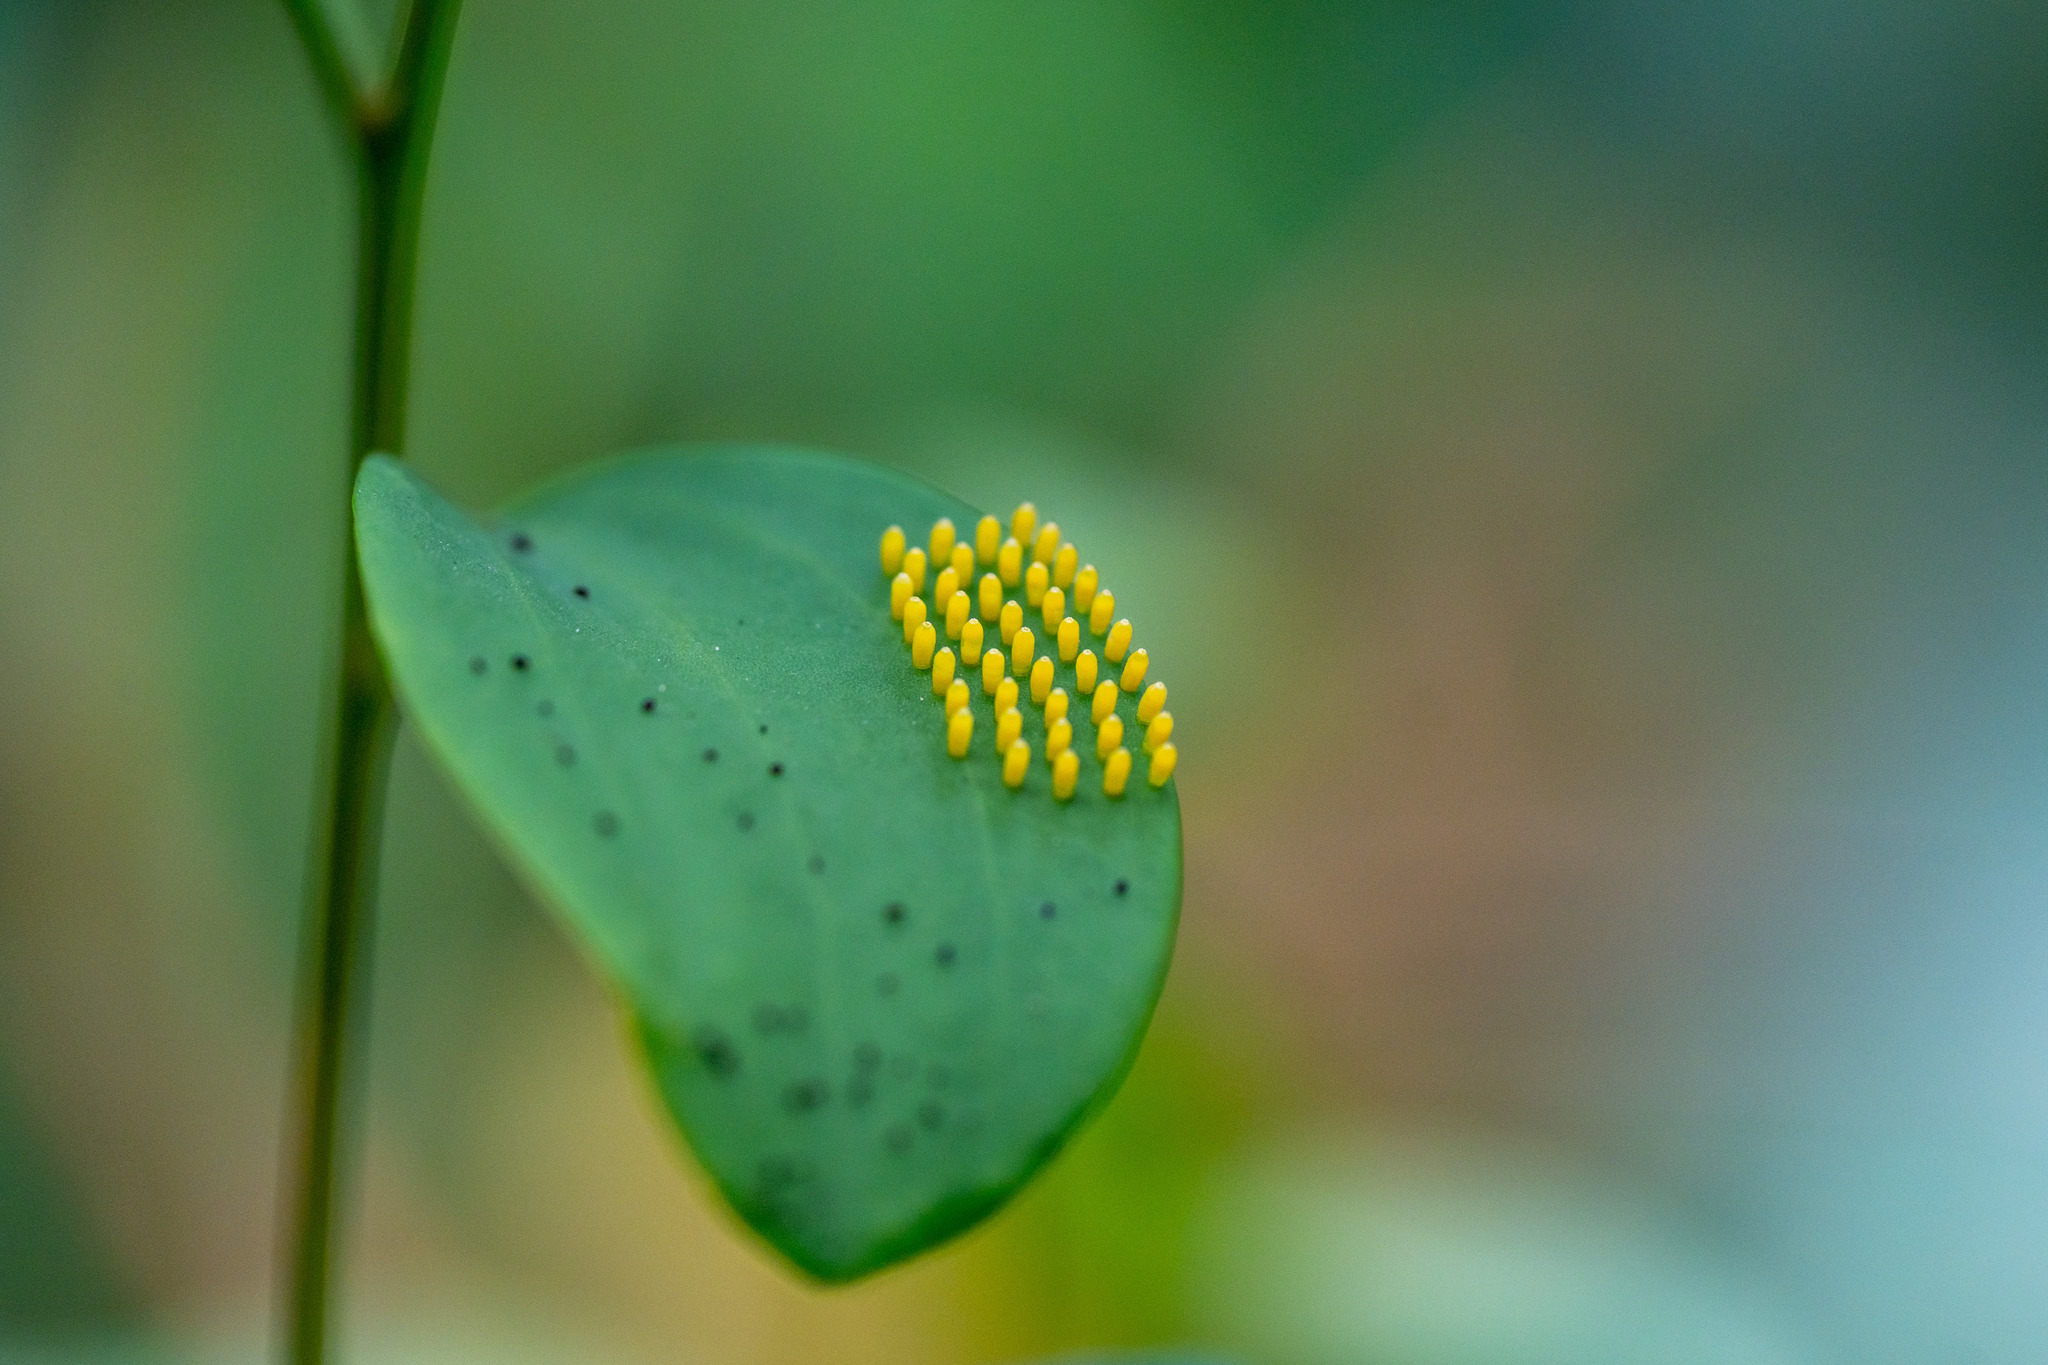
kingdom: Animalia
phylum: Arthropoda
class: Insecta
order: Lepidoptera
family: Pieridae
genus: Delias
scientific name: Delias pasithoe
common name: Red-base jezebel
